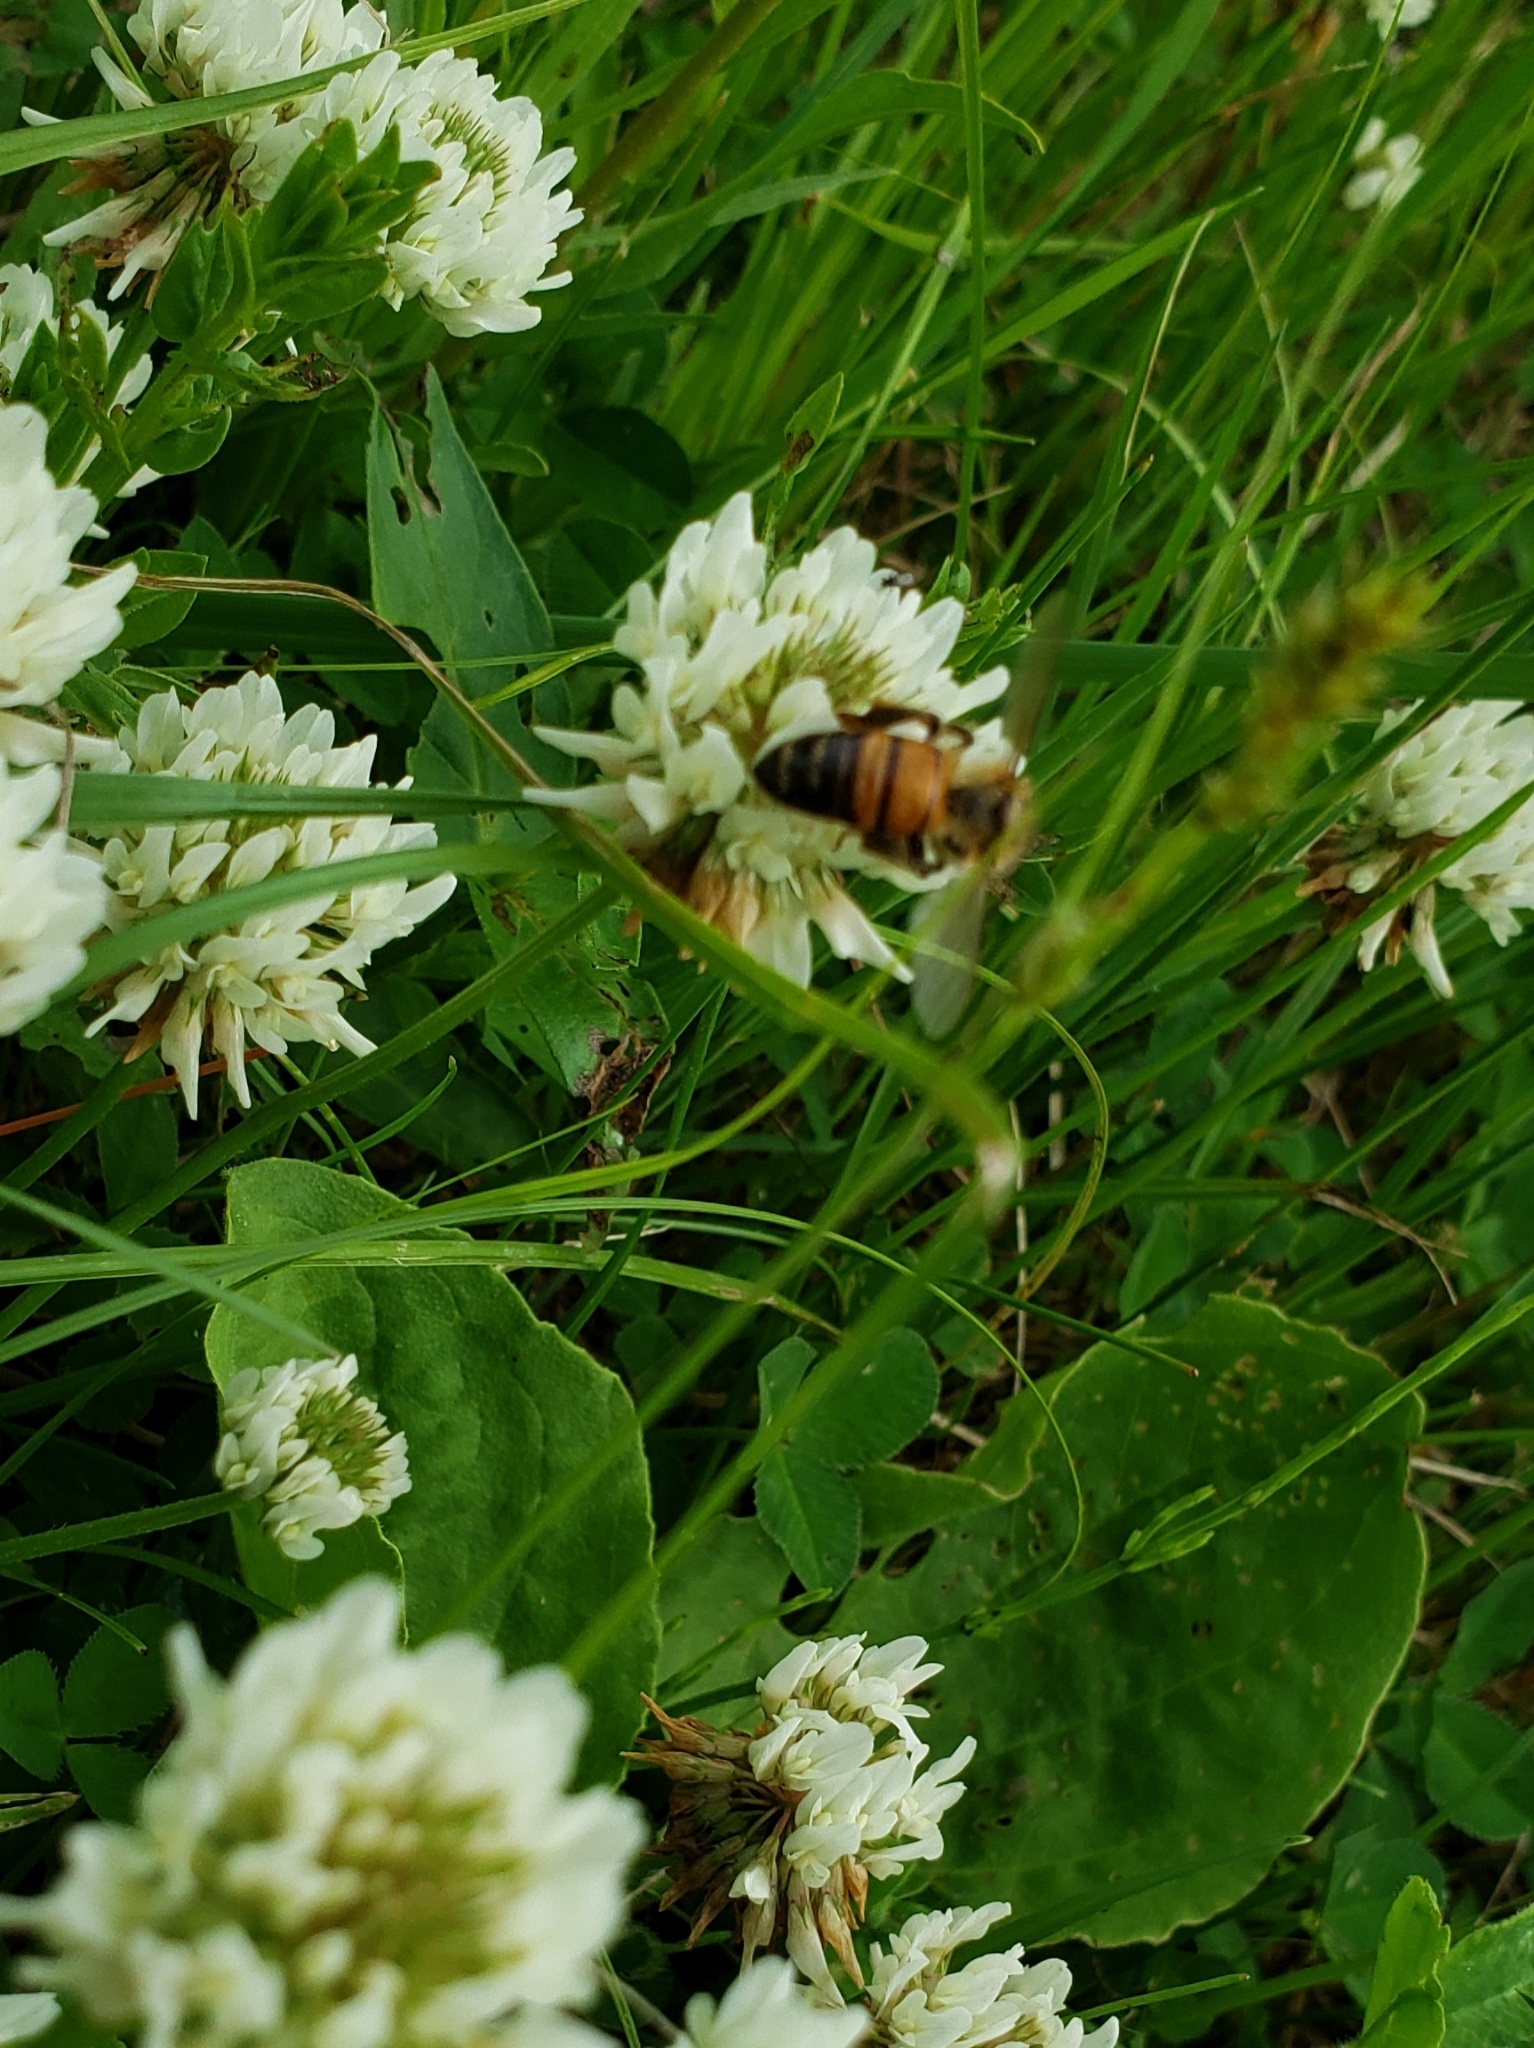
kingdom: Animalia
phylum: Arthropoda
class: Insecta
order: Hymenoptera
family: Apidae
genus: Apis
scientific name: Apis mellifera
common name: Honey bee
